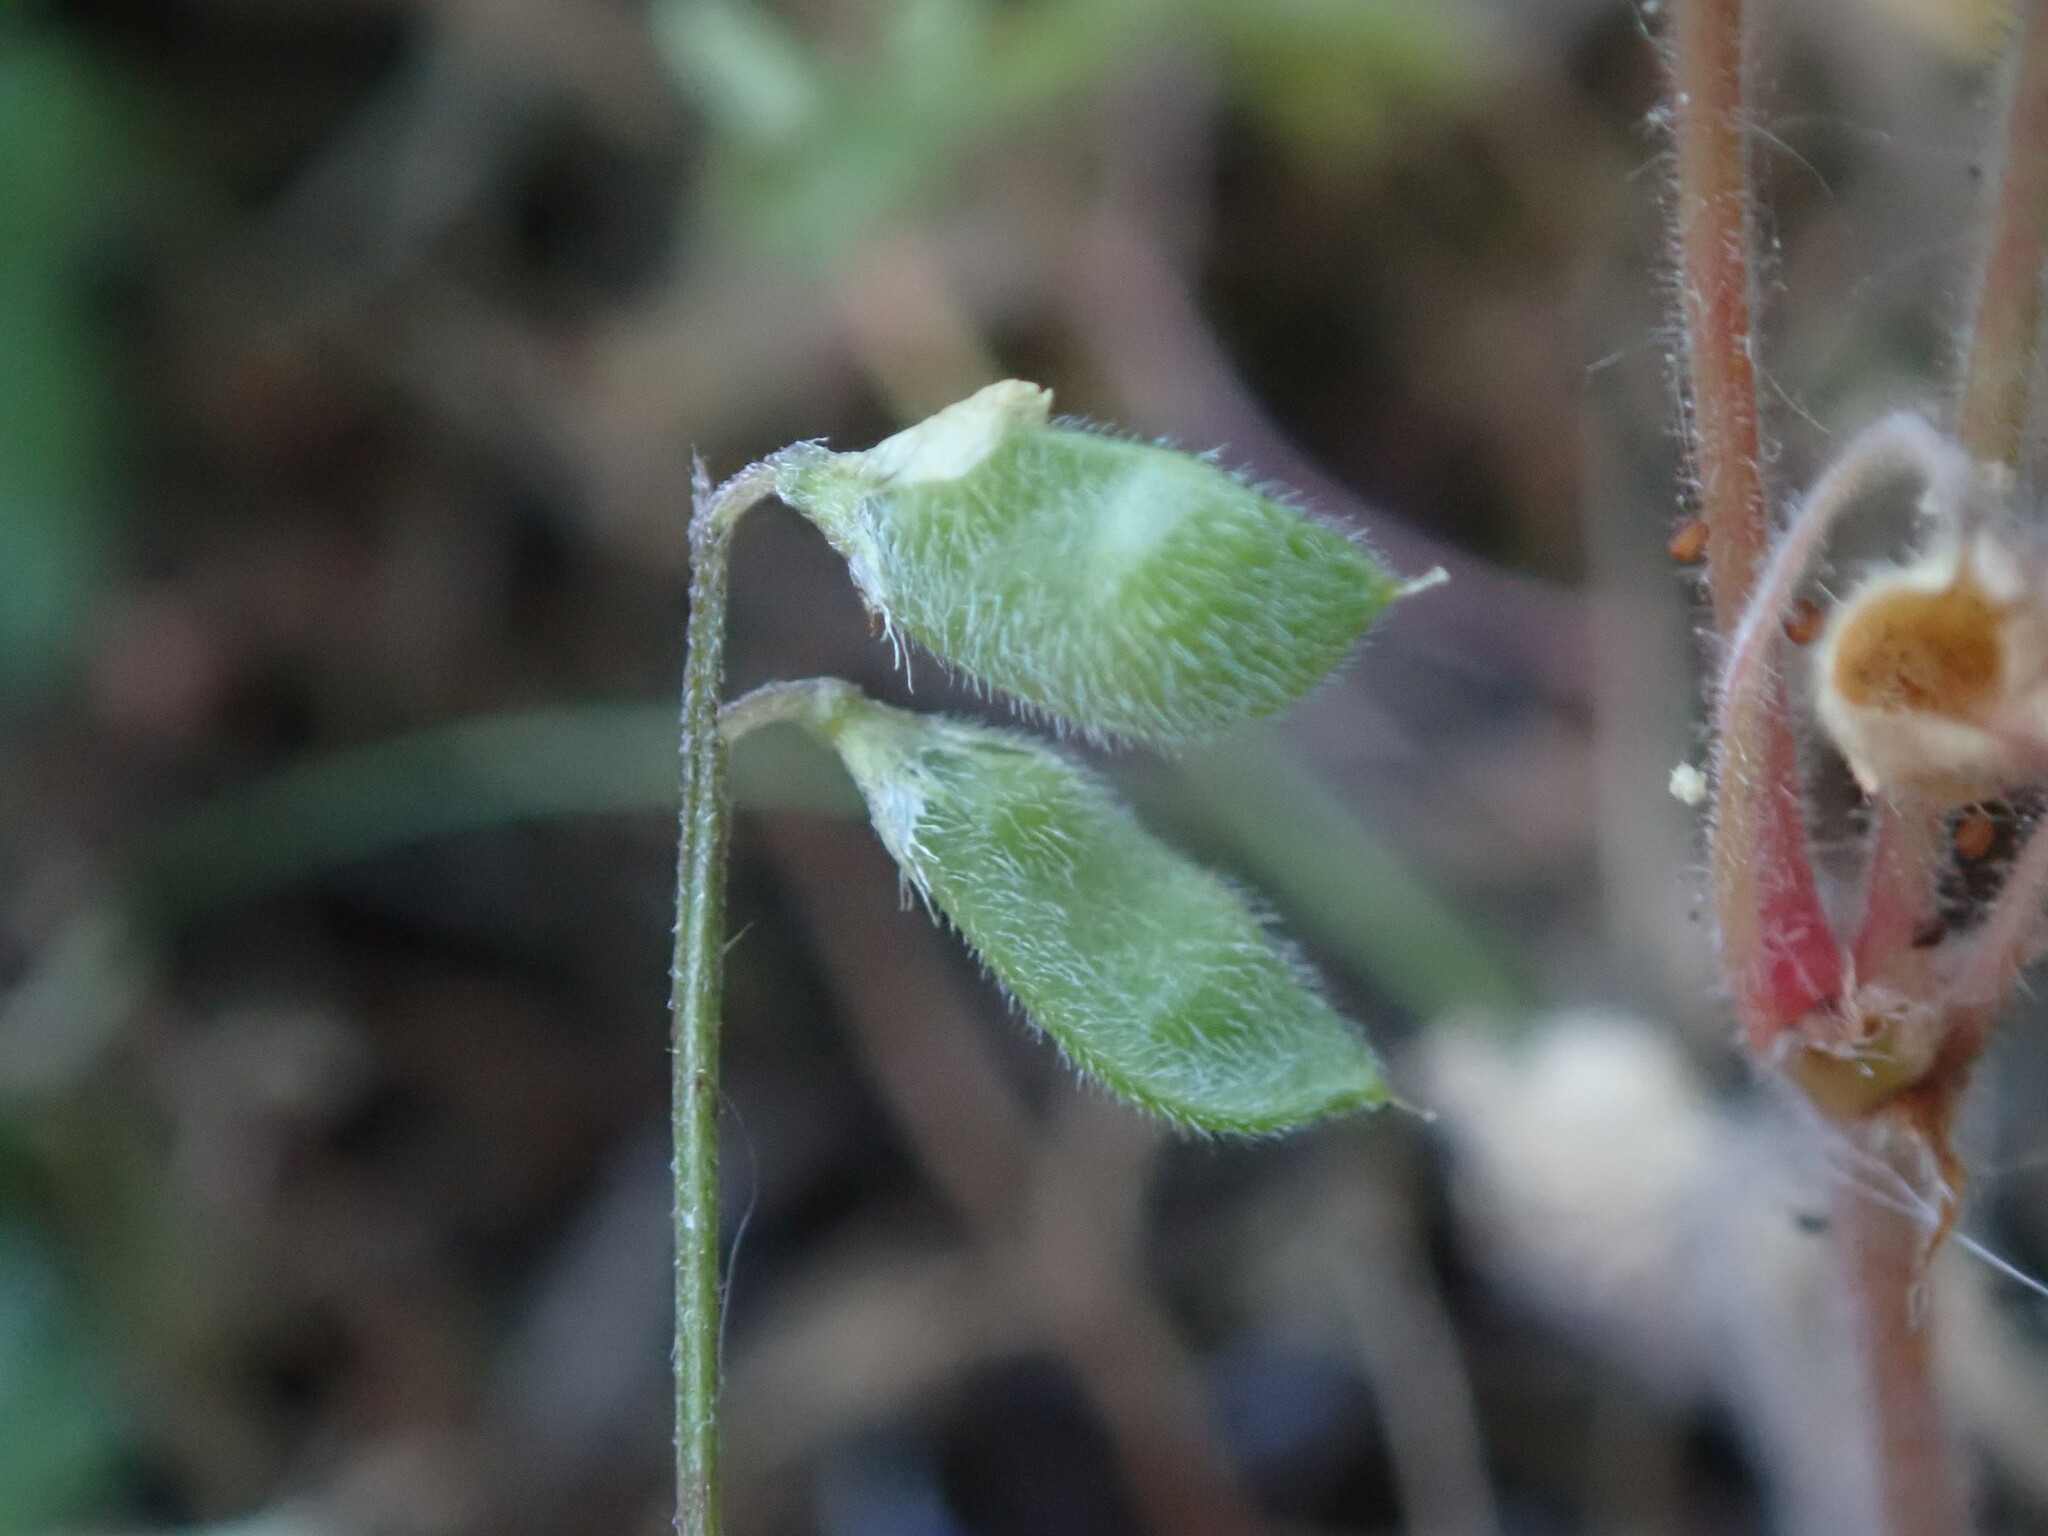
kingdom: Plantae
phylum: Tracheophyta
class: Magnoliopsida
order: Fabales
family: Fabaceae
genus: Vicia
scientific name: Vicia hirsuta
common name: Tiny vetch
